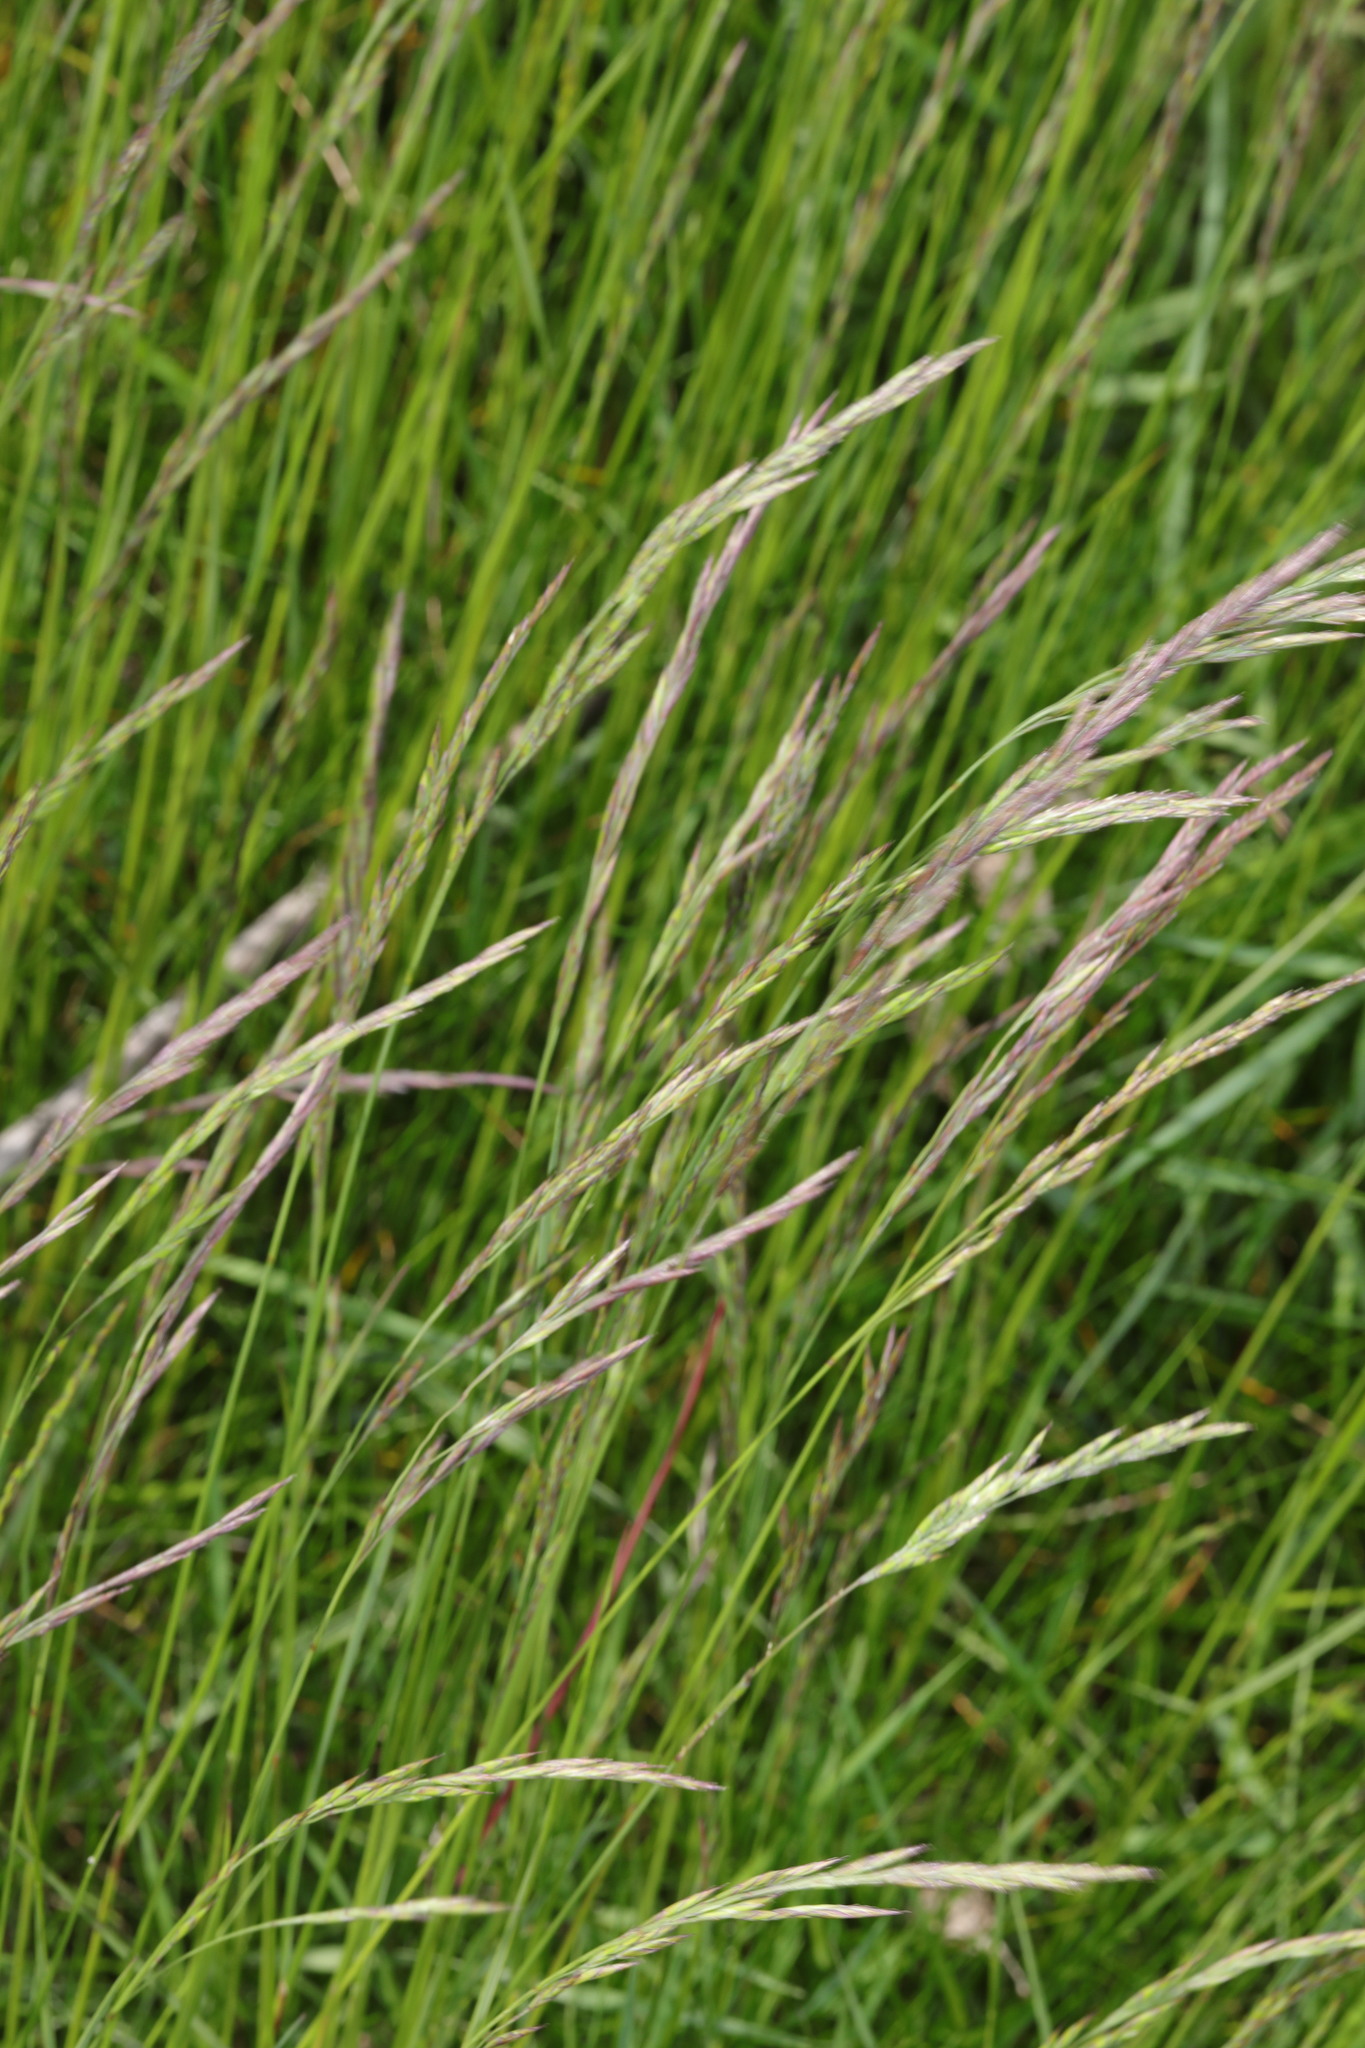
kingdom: Plantae
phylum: Tracheophyta
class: Liliopsida
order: Poales
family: Poaceae
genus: Festuca
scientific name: Festuca rubra
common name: Red fescue
